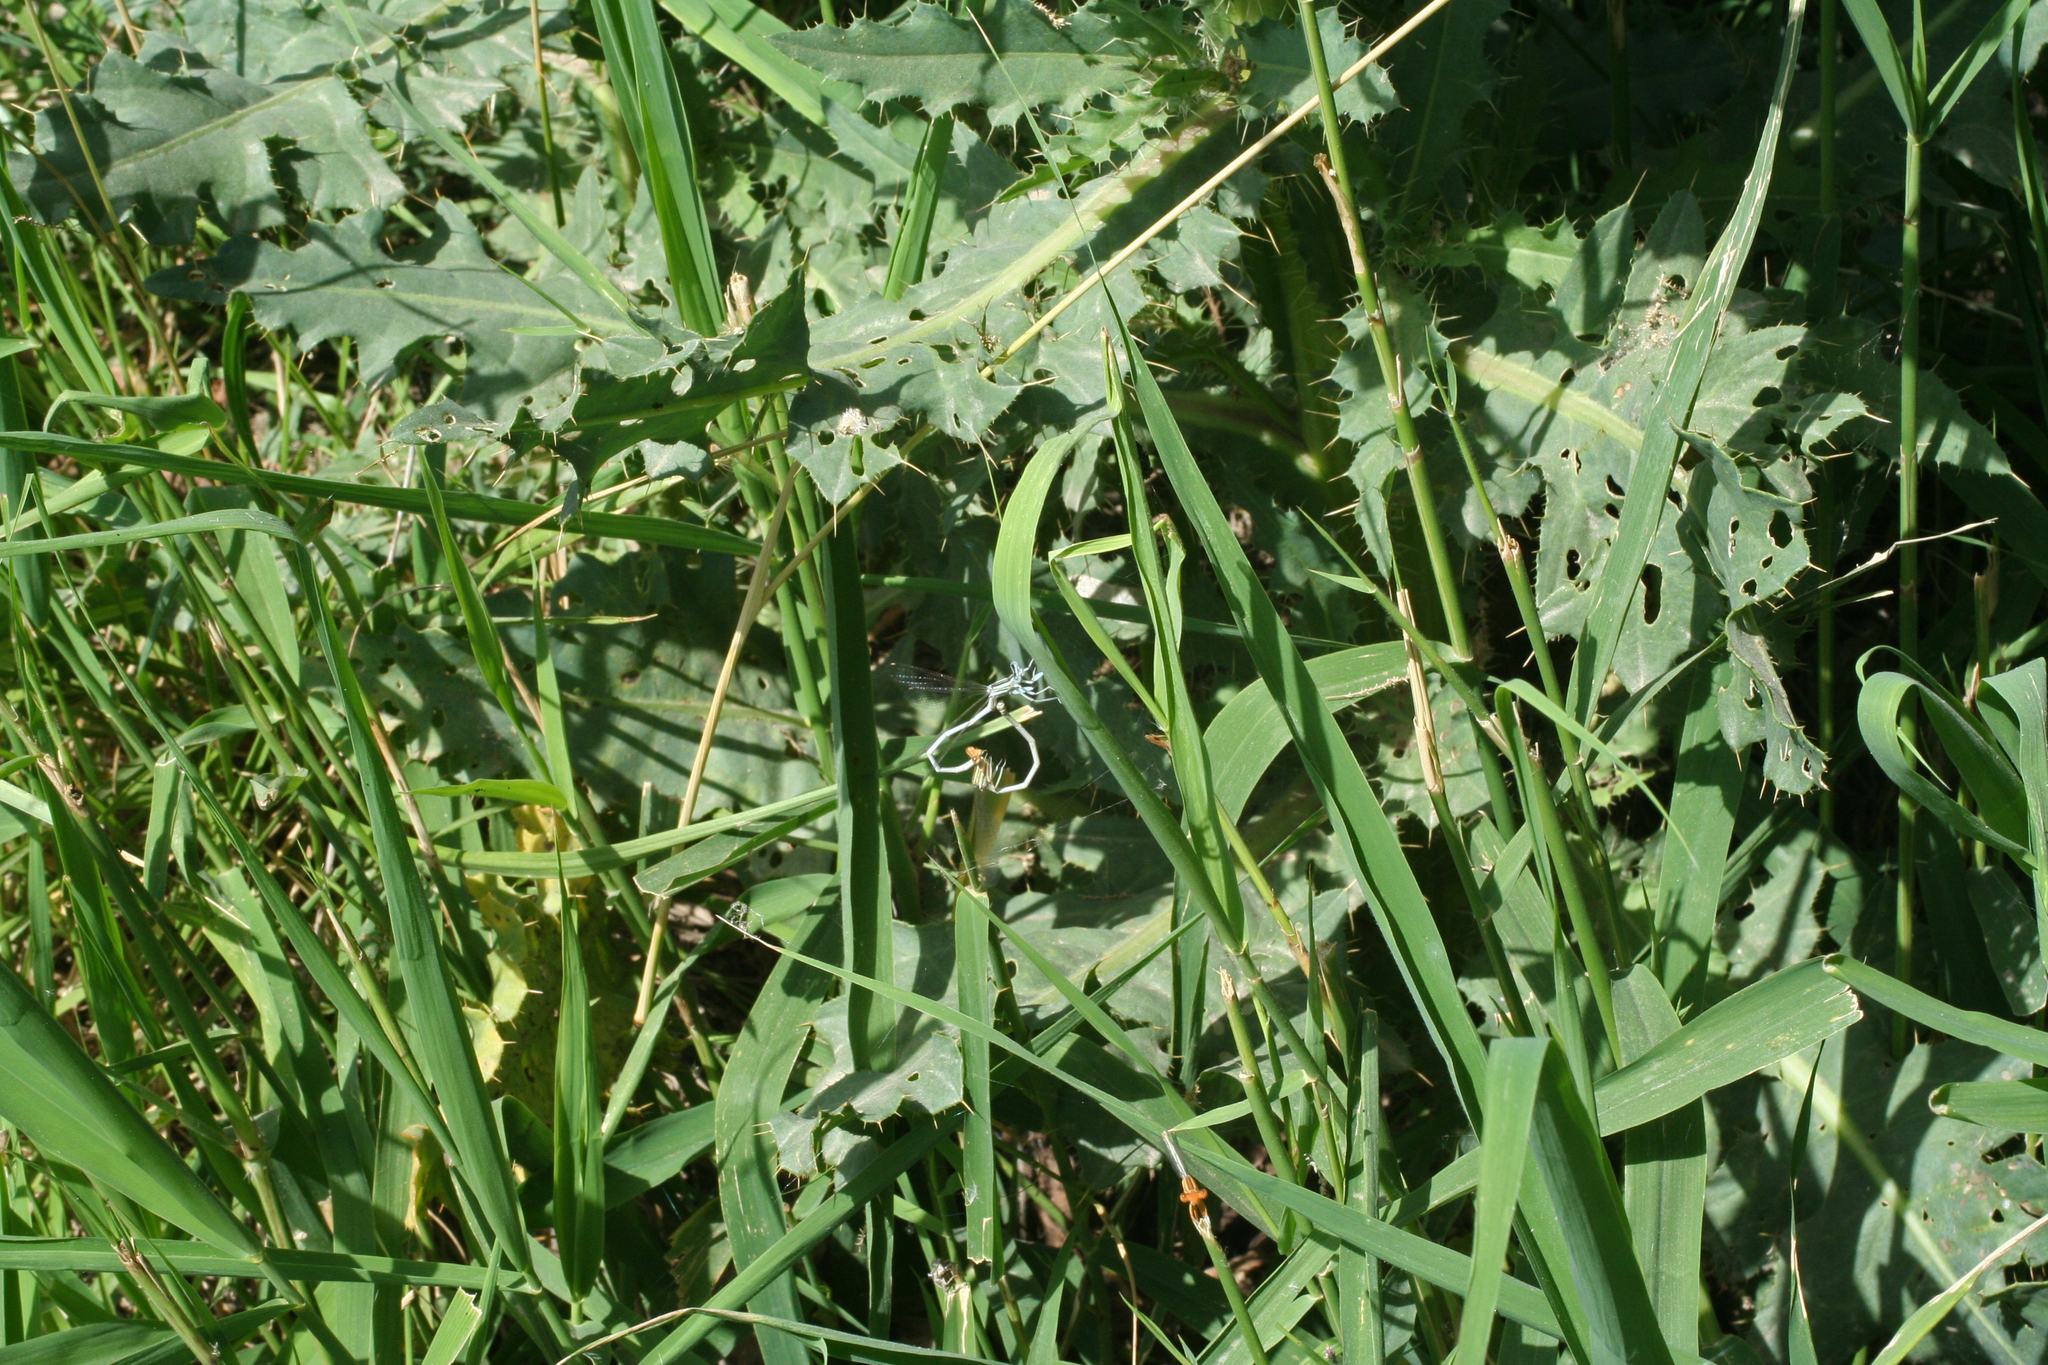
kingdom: Animalia
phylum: Arthropoda
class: Insecta
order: Odonata
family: Platycnemididae
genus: Platycnemis
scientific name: Platycnemis dealbata
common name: Ivory featherleg
